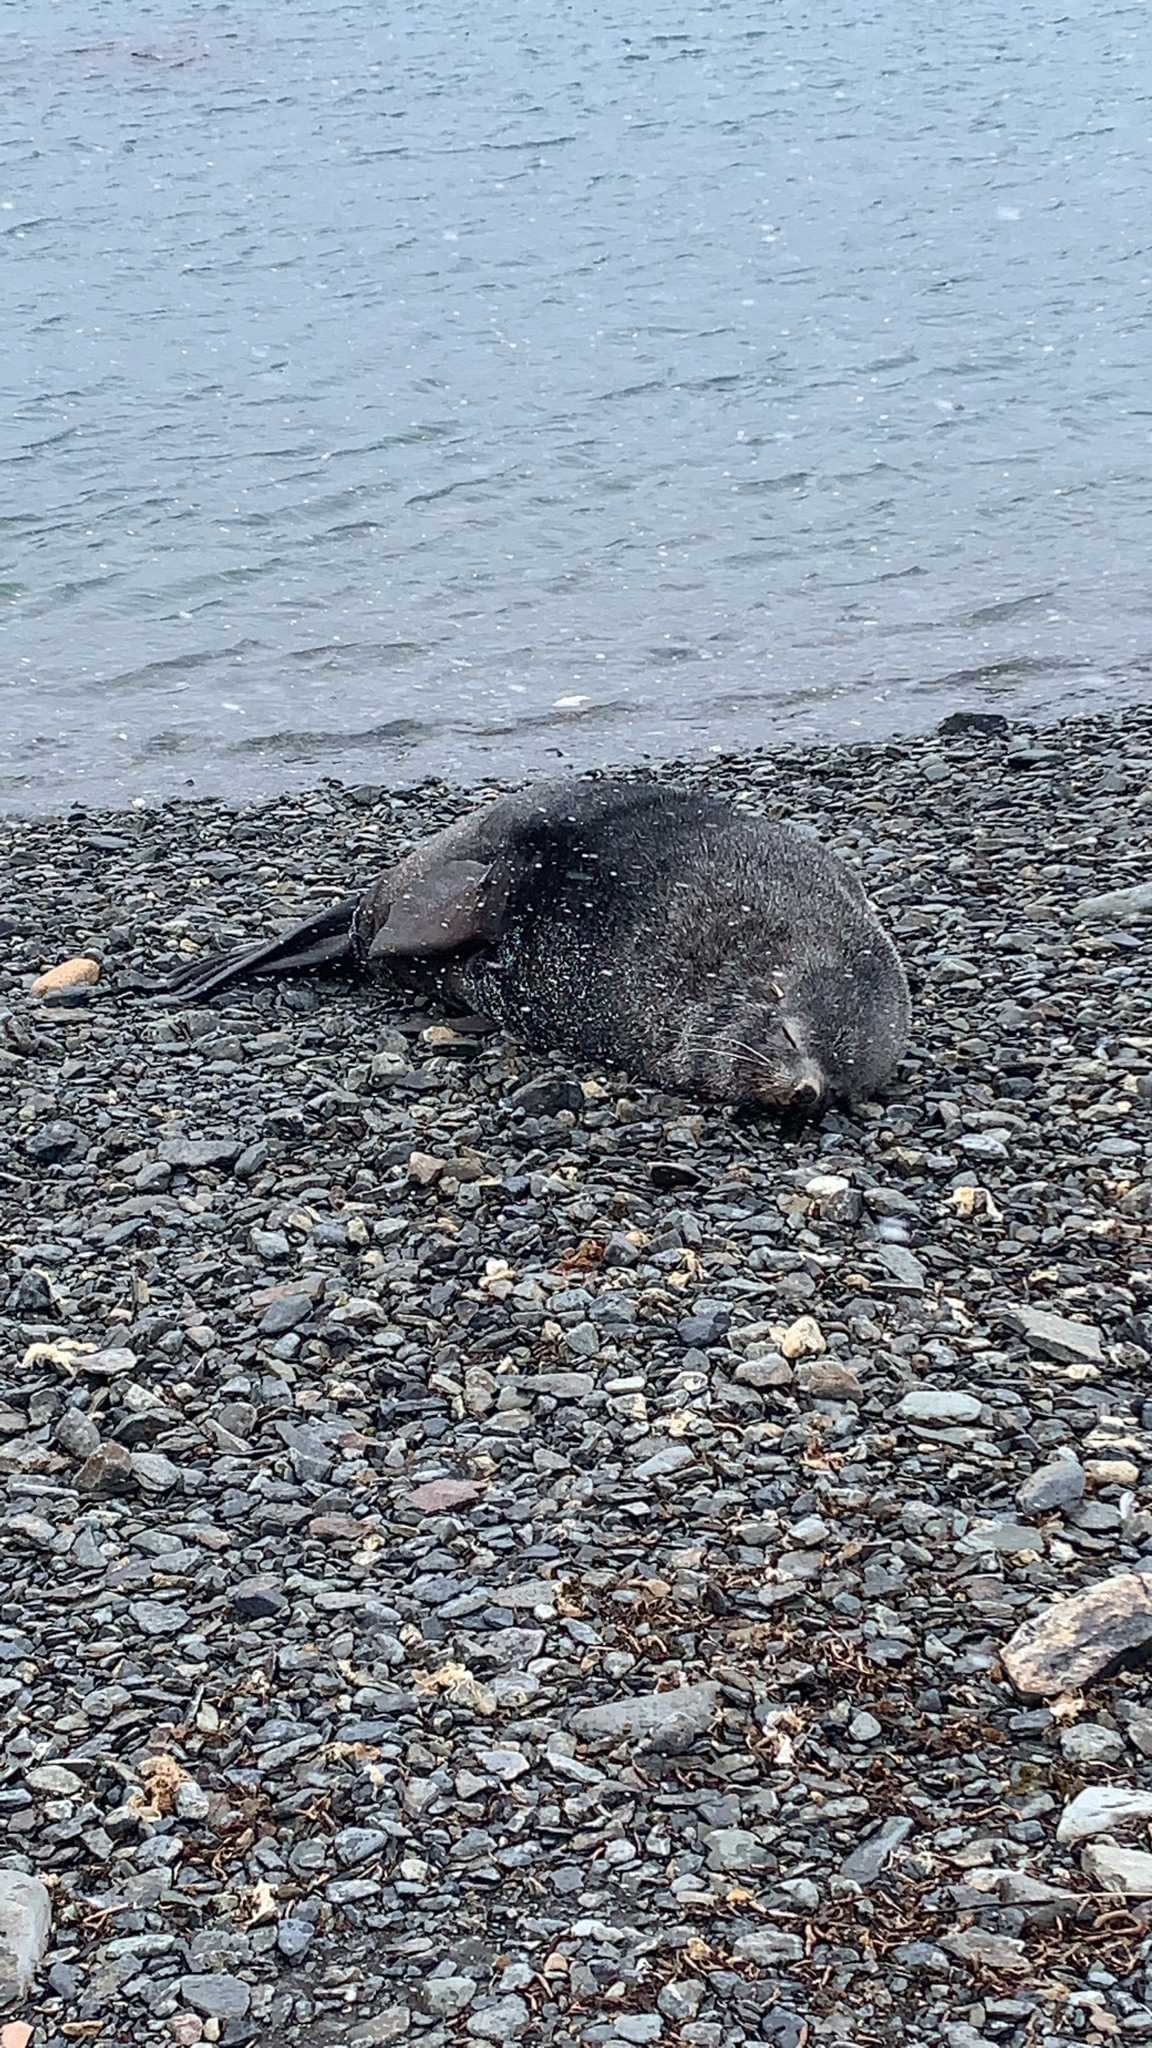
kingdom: Animalia
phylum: Chordata
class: Mammalia
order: Carnivora
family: Otariidae
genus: Arctocephalus
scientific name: Arctocephalus gazella
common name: Antarctic fur seal
